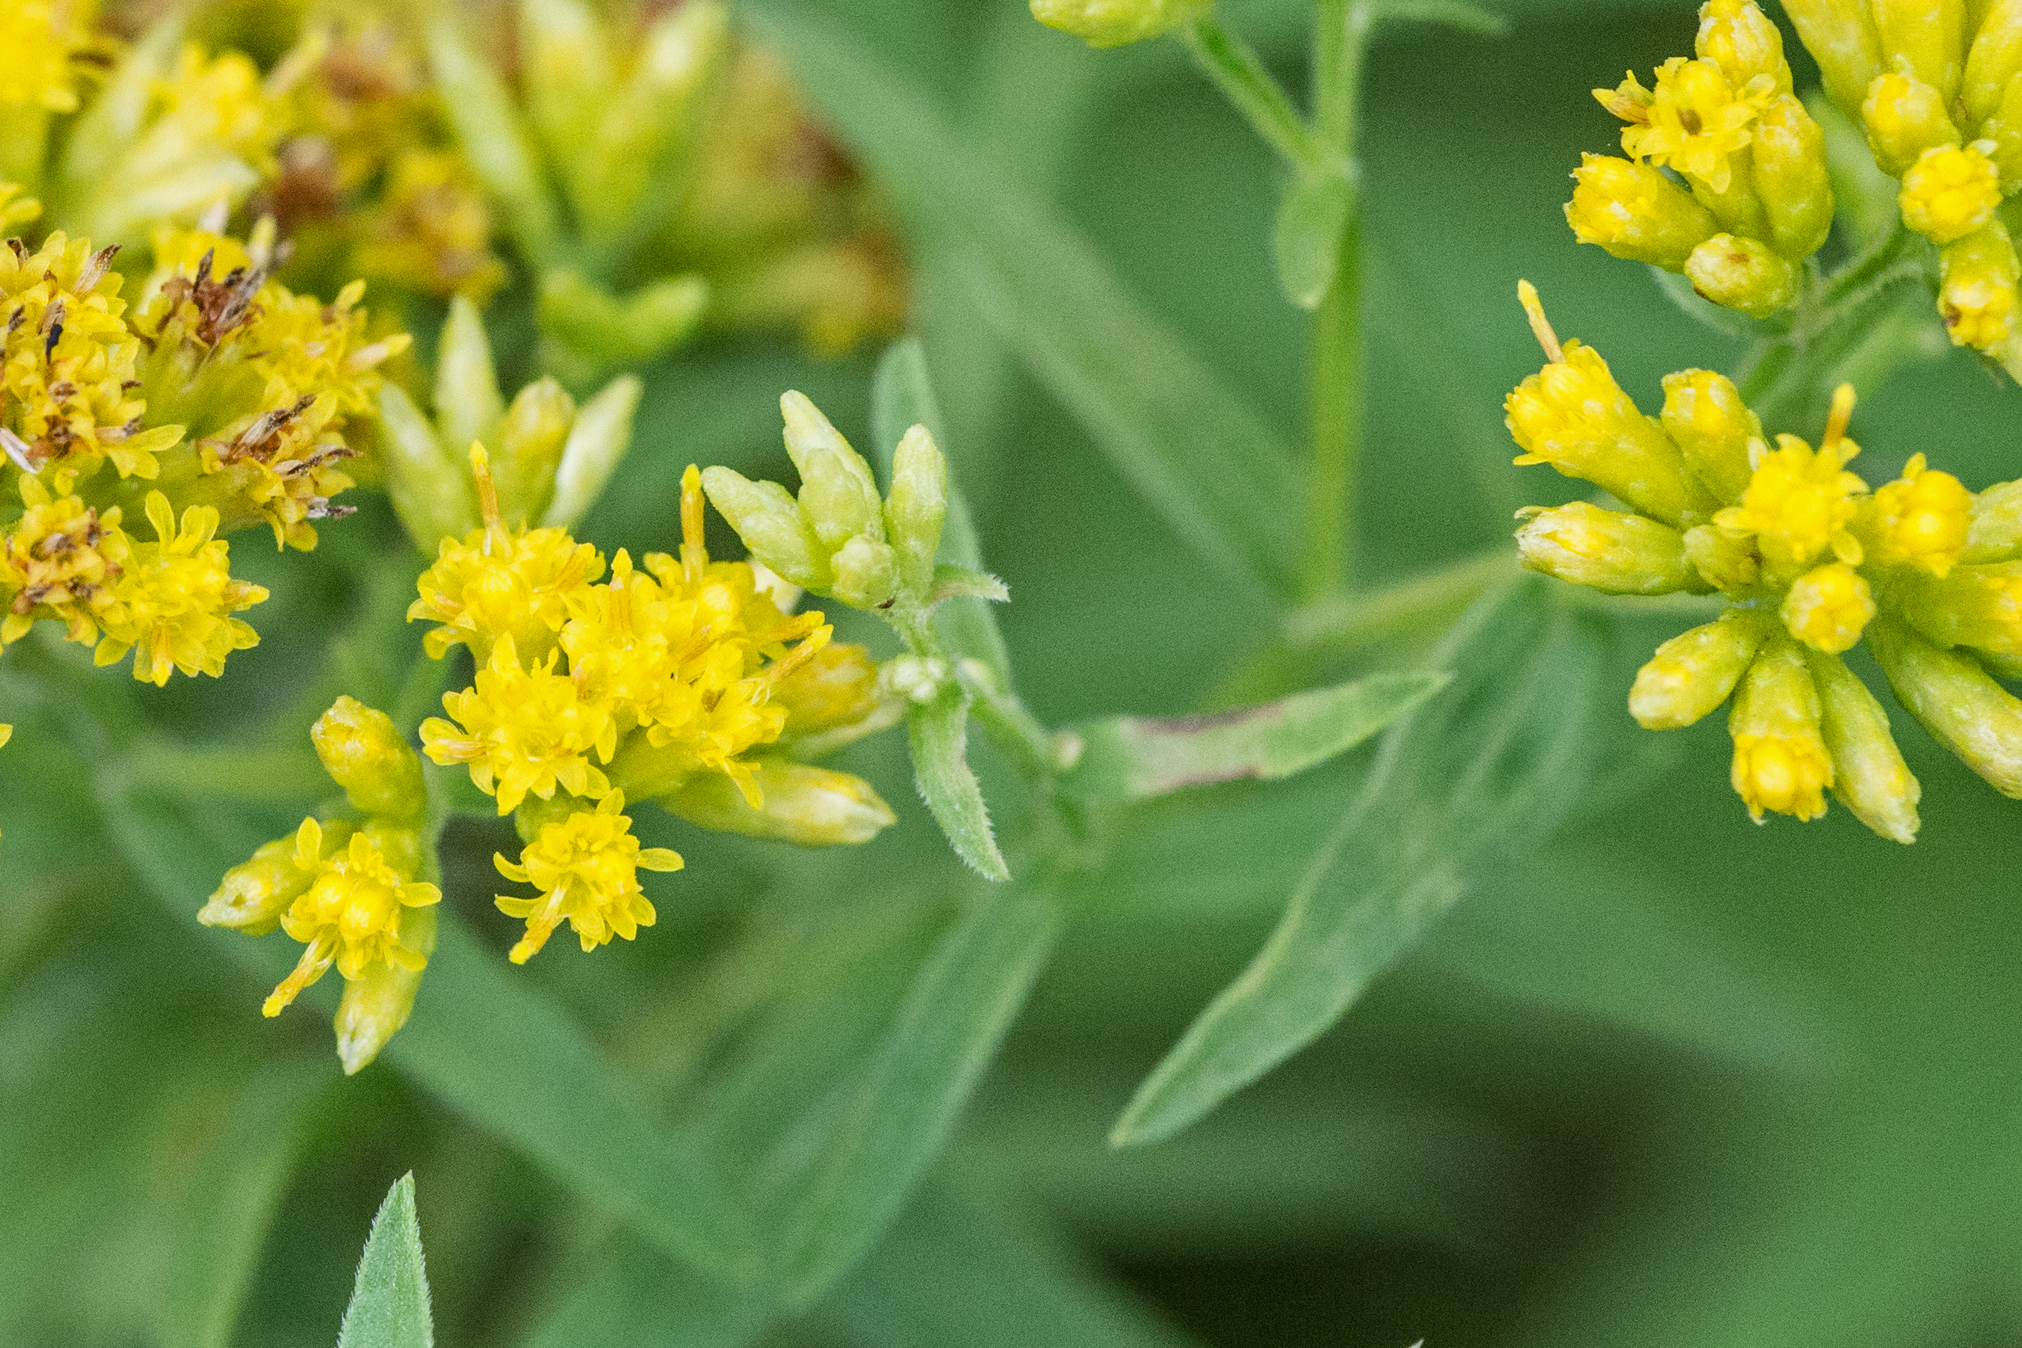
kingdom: Plantae
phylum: Tracheophyta
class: Magnoliopsida
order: Asterales
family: Asteraceae
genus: Euthamia
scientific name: Euthamia graminifolia
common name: Common goldentop
